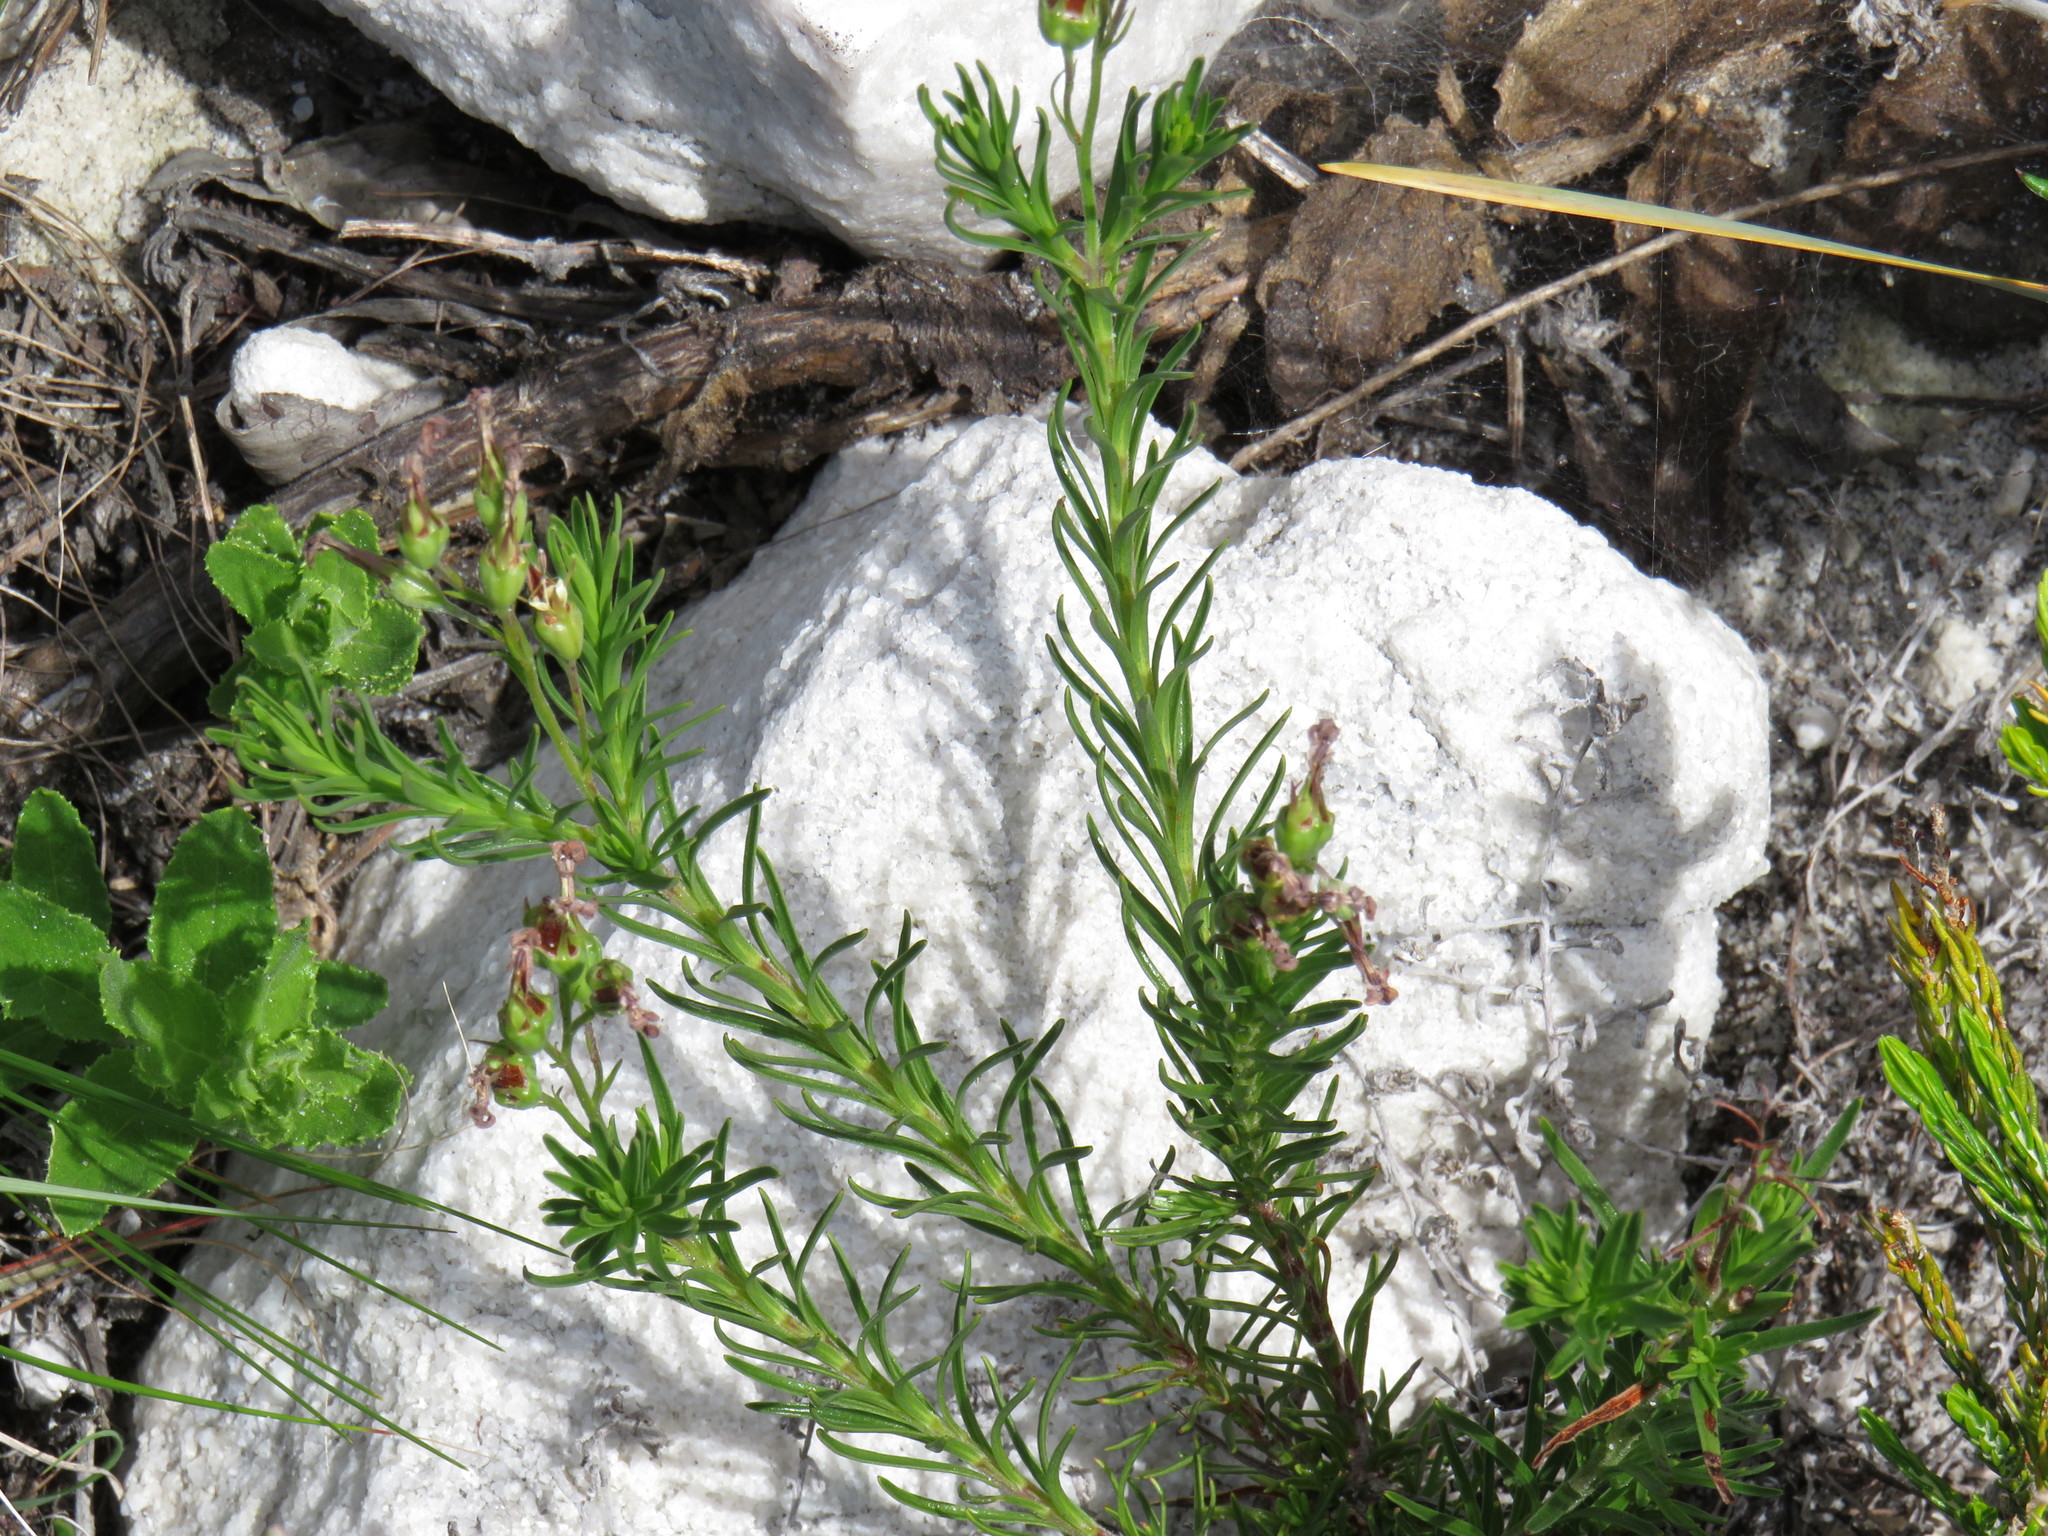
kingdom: Plantae
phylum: Tracheophyta
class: Magnoliopsida
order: Asterales
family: Campanulaceae
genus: Lobelia
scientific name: Lobelia pinifolia
